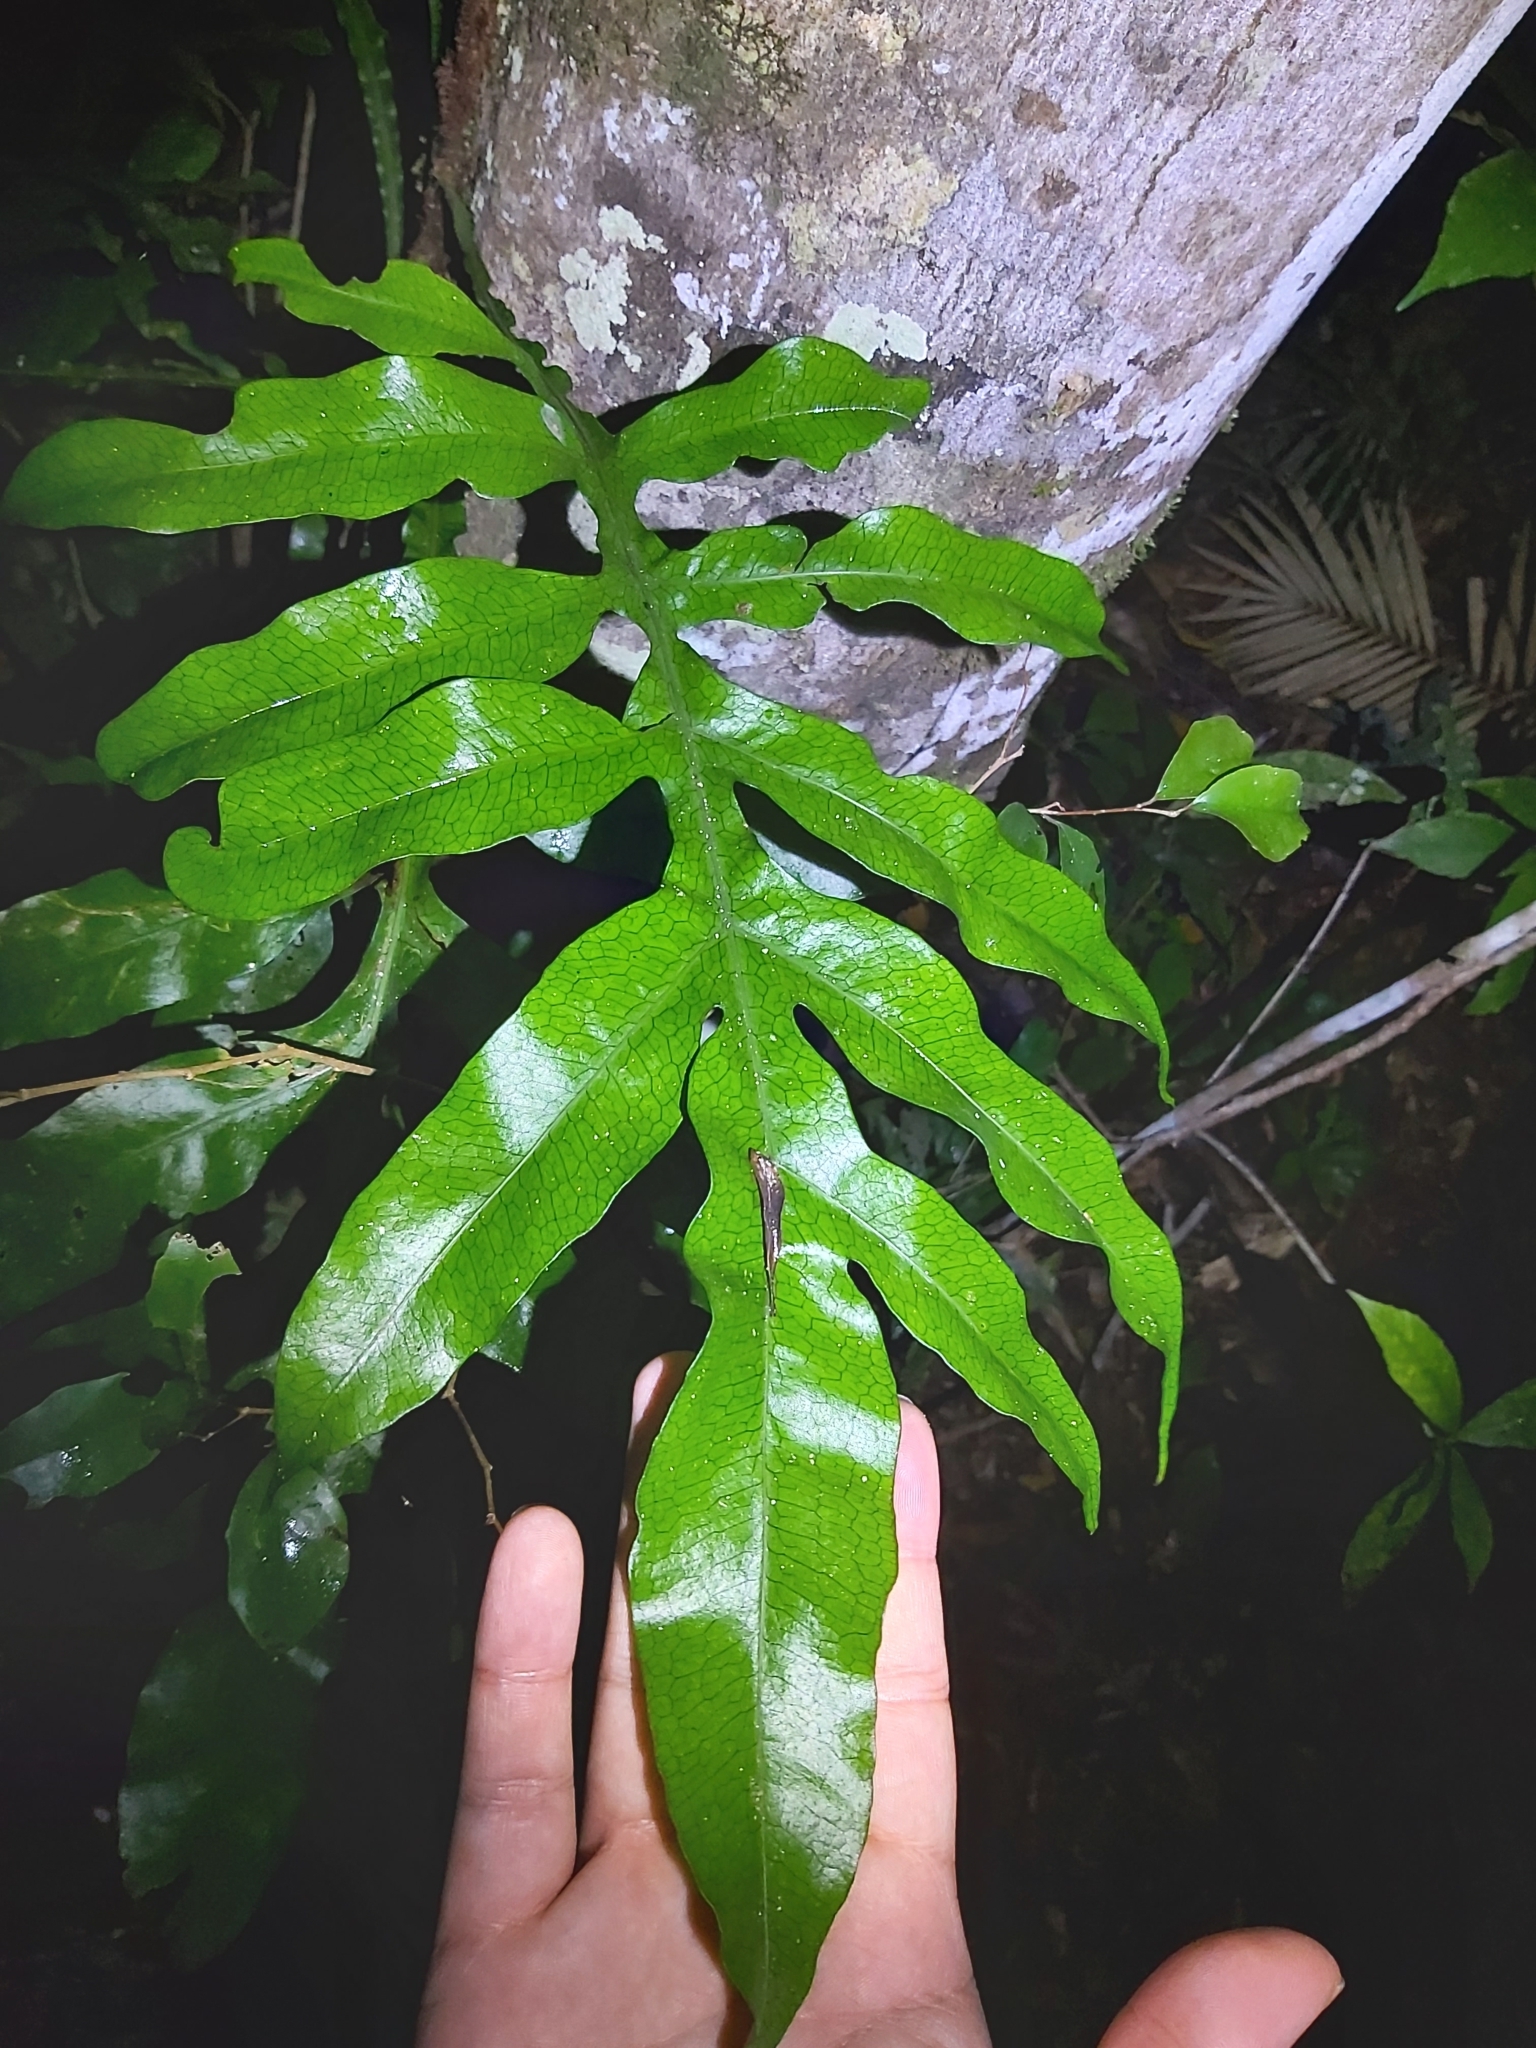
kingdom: Plantae
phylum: Tracheophyta
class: Polypodiopsida
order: Polypodiales
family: Polypodiaceae
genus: Lecanopteris
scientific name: Lecanopteris ampla
